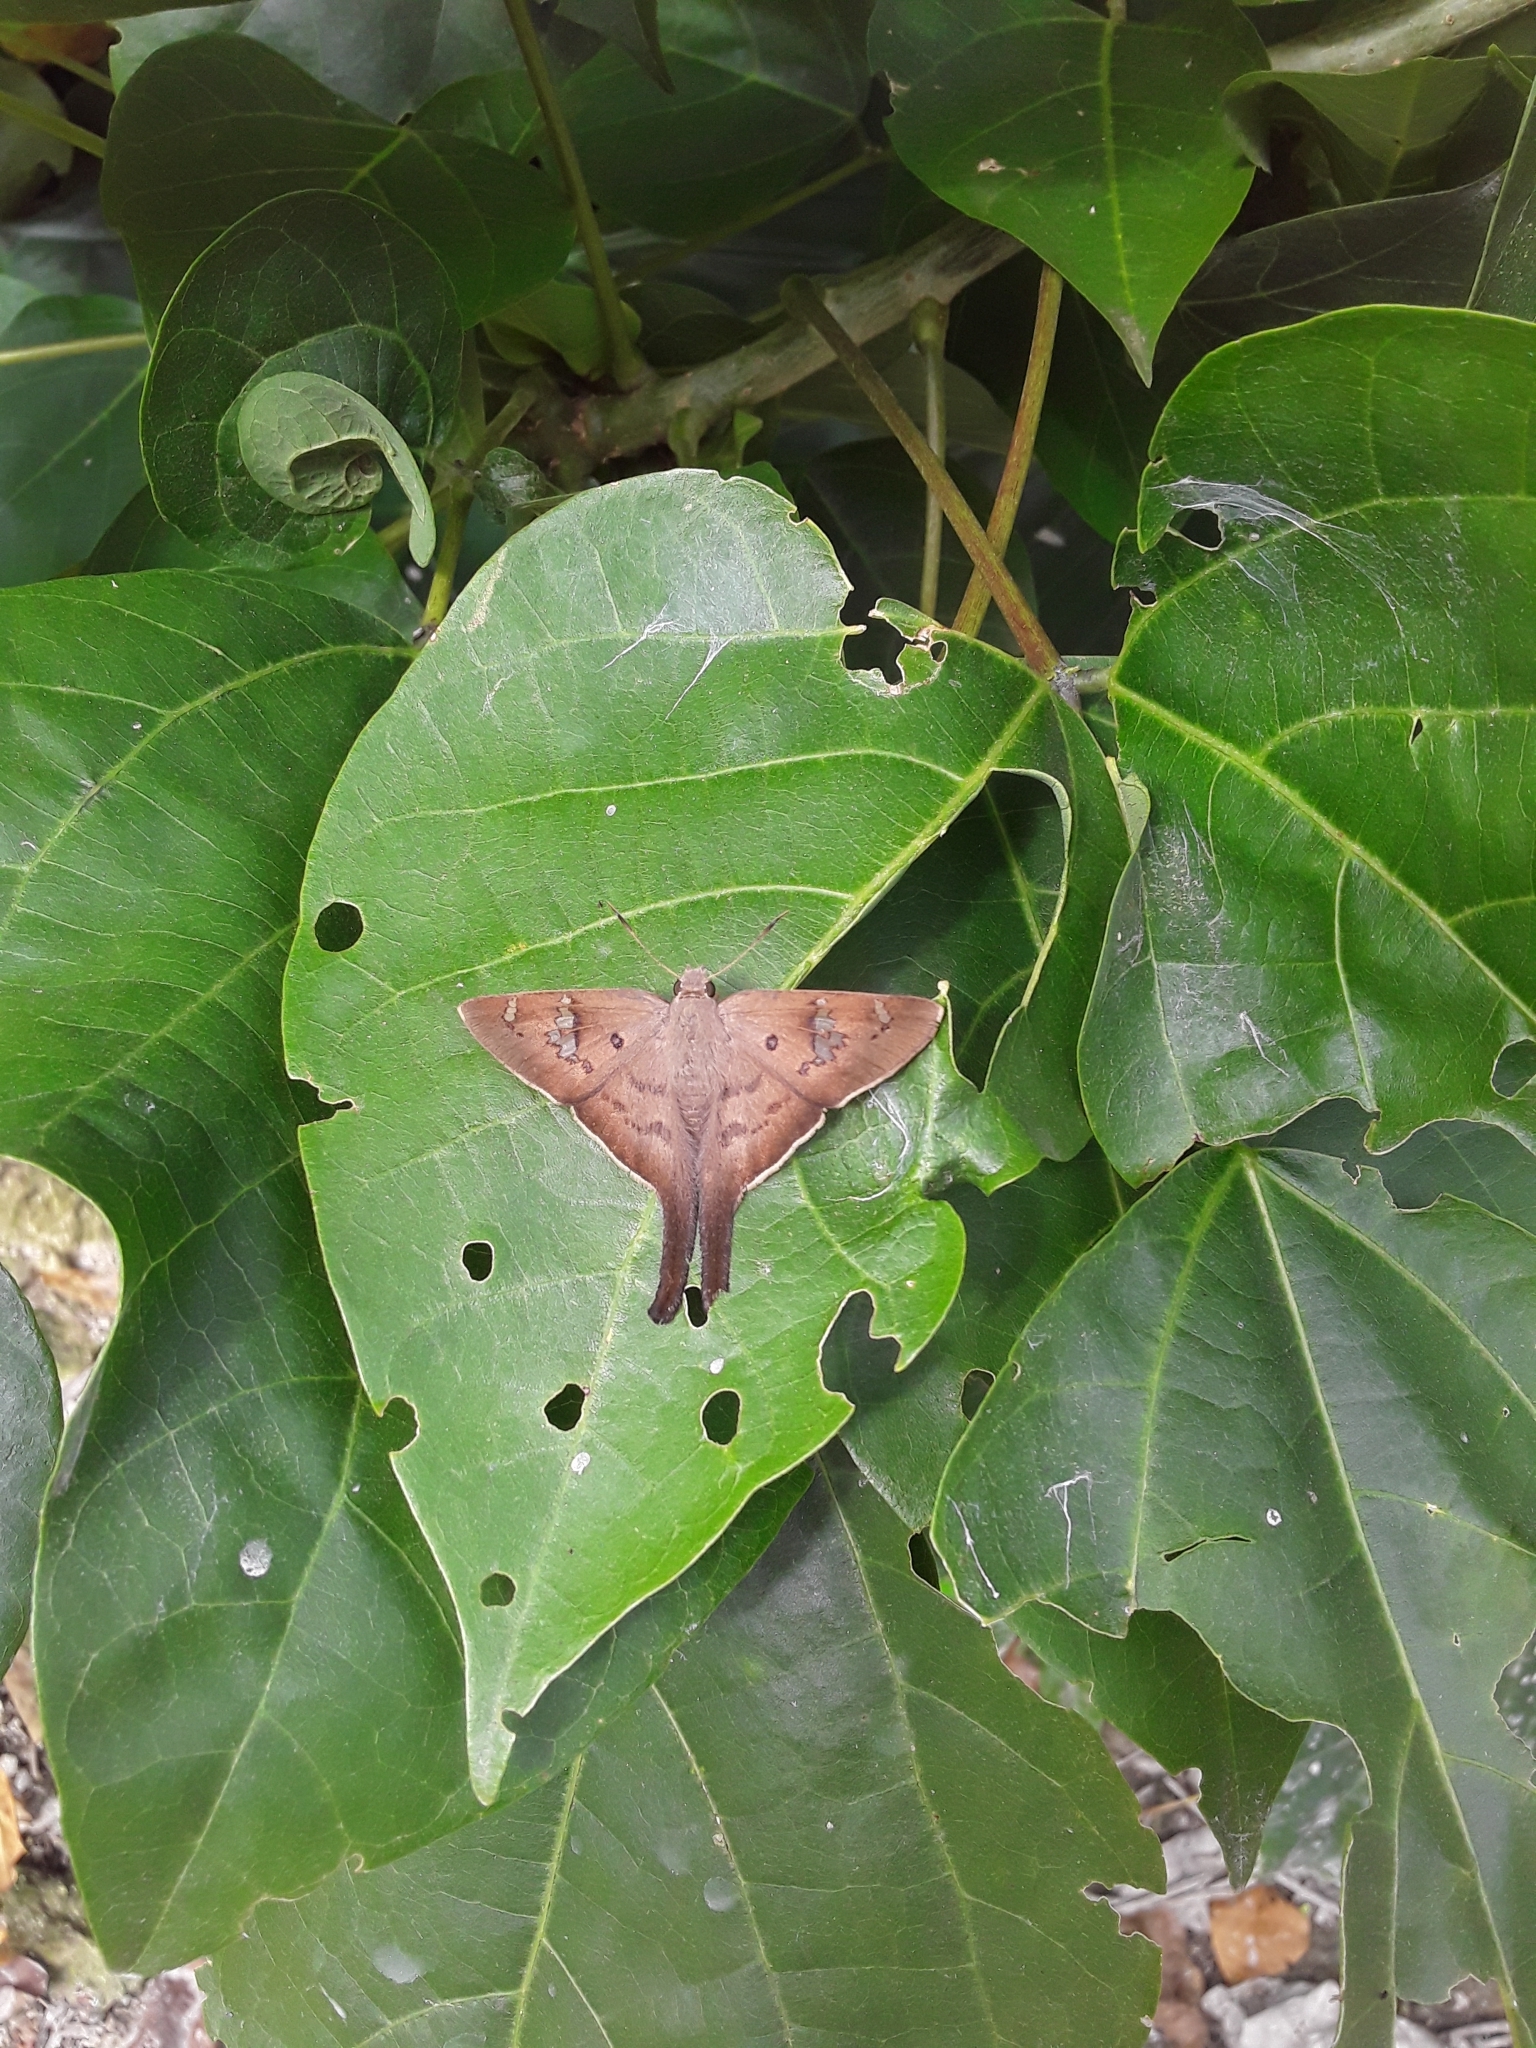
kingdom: Animalia
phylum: Arthropoda
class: Insecta
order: Lepidoptera
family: Hesperiidae
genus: Ectomis
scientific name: Ectomis
